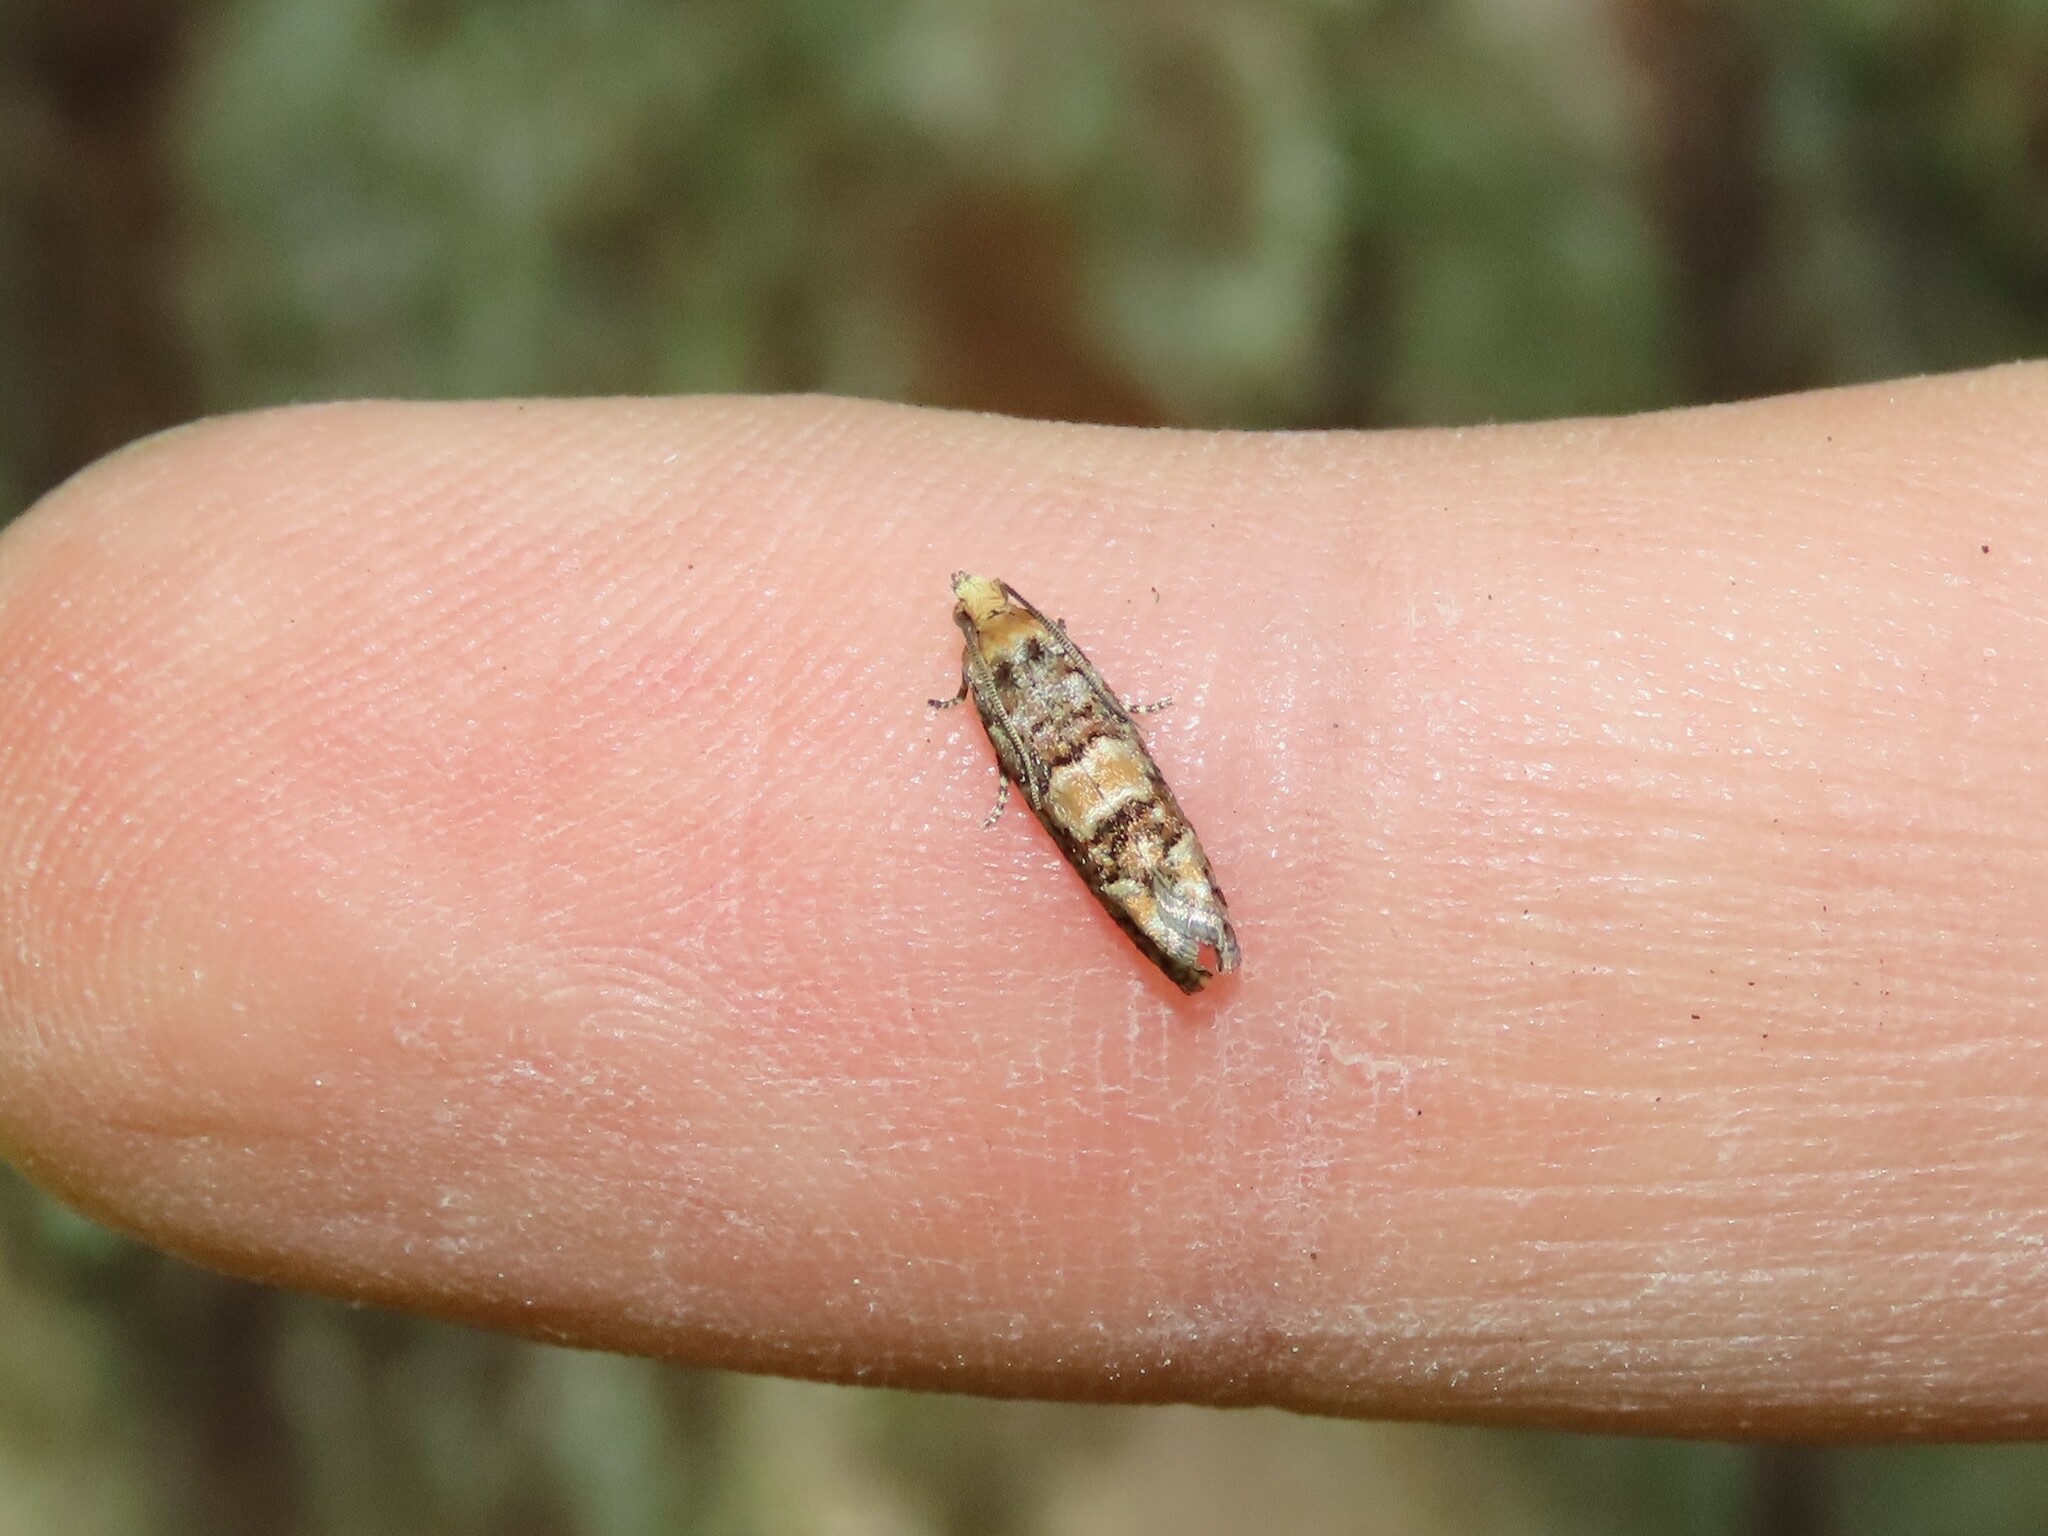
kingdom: Animalia
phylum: Arthropoda
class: Insecta
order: Lepidoptera
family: Tortricidae
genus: Eucopina
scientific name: Eucopina tocullionana
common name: White pinecone borer moth
